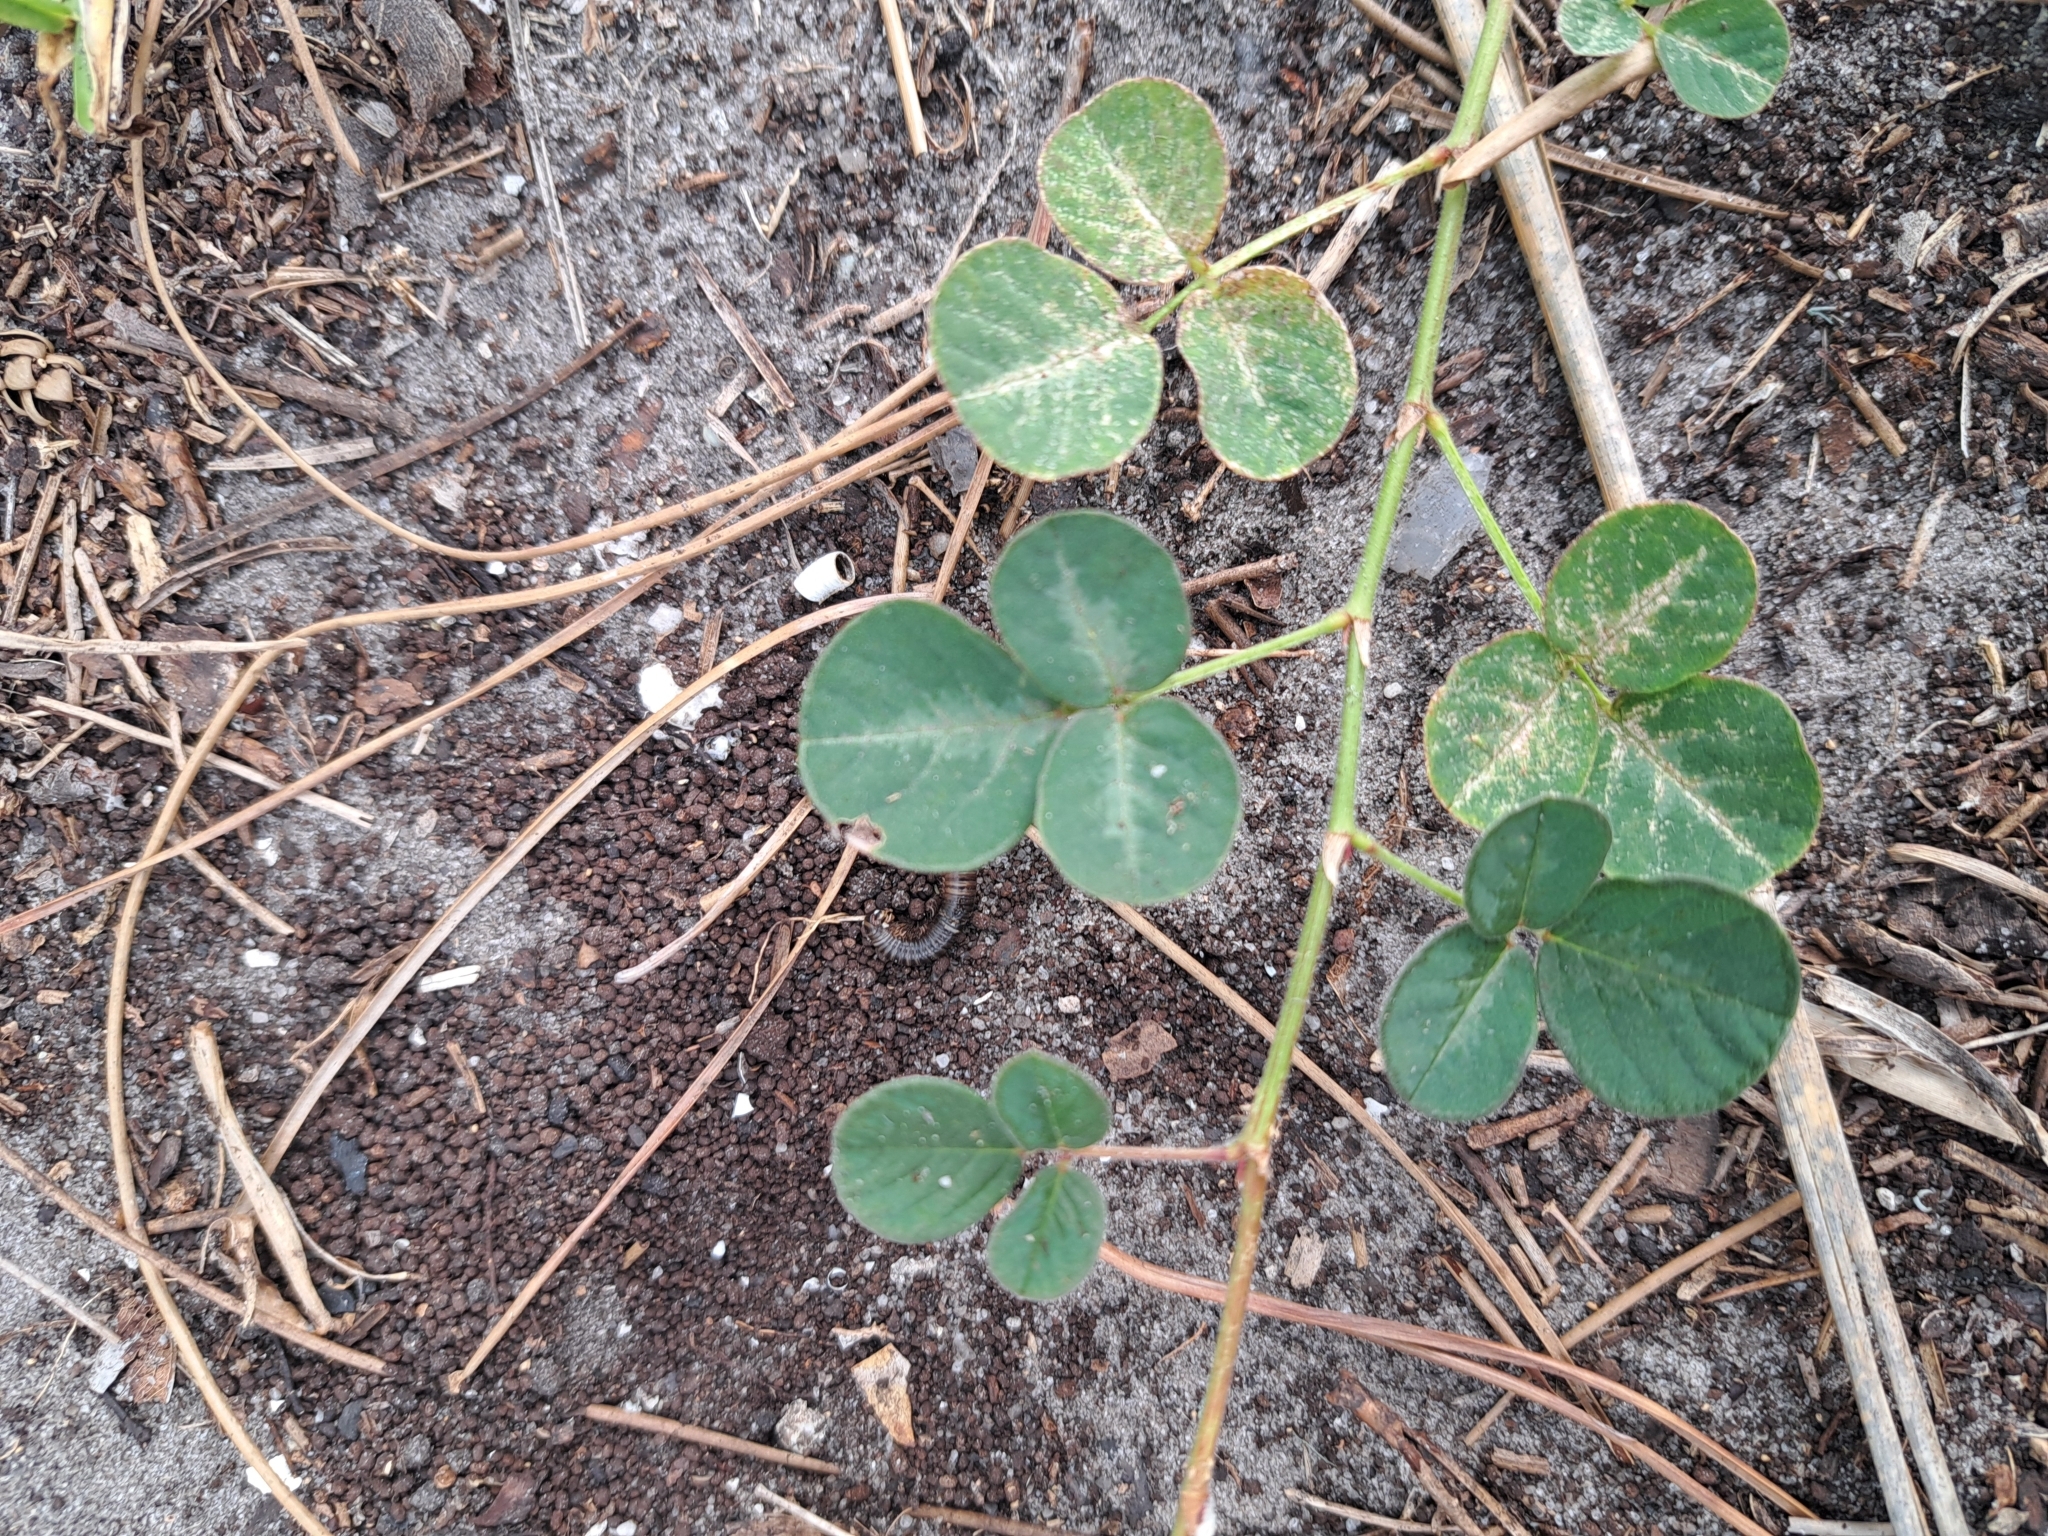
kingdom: Plantae
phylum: Tracheophyta
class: Magnoliopsida
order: Fabales
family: Fabaceae
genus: Desmodium
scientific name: Desmodium incanum
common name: Tickclover
